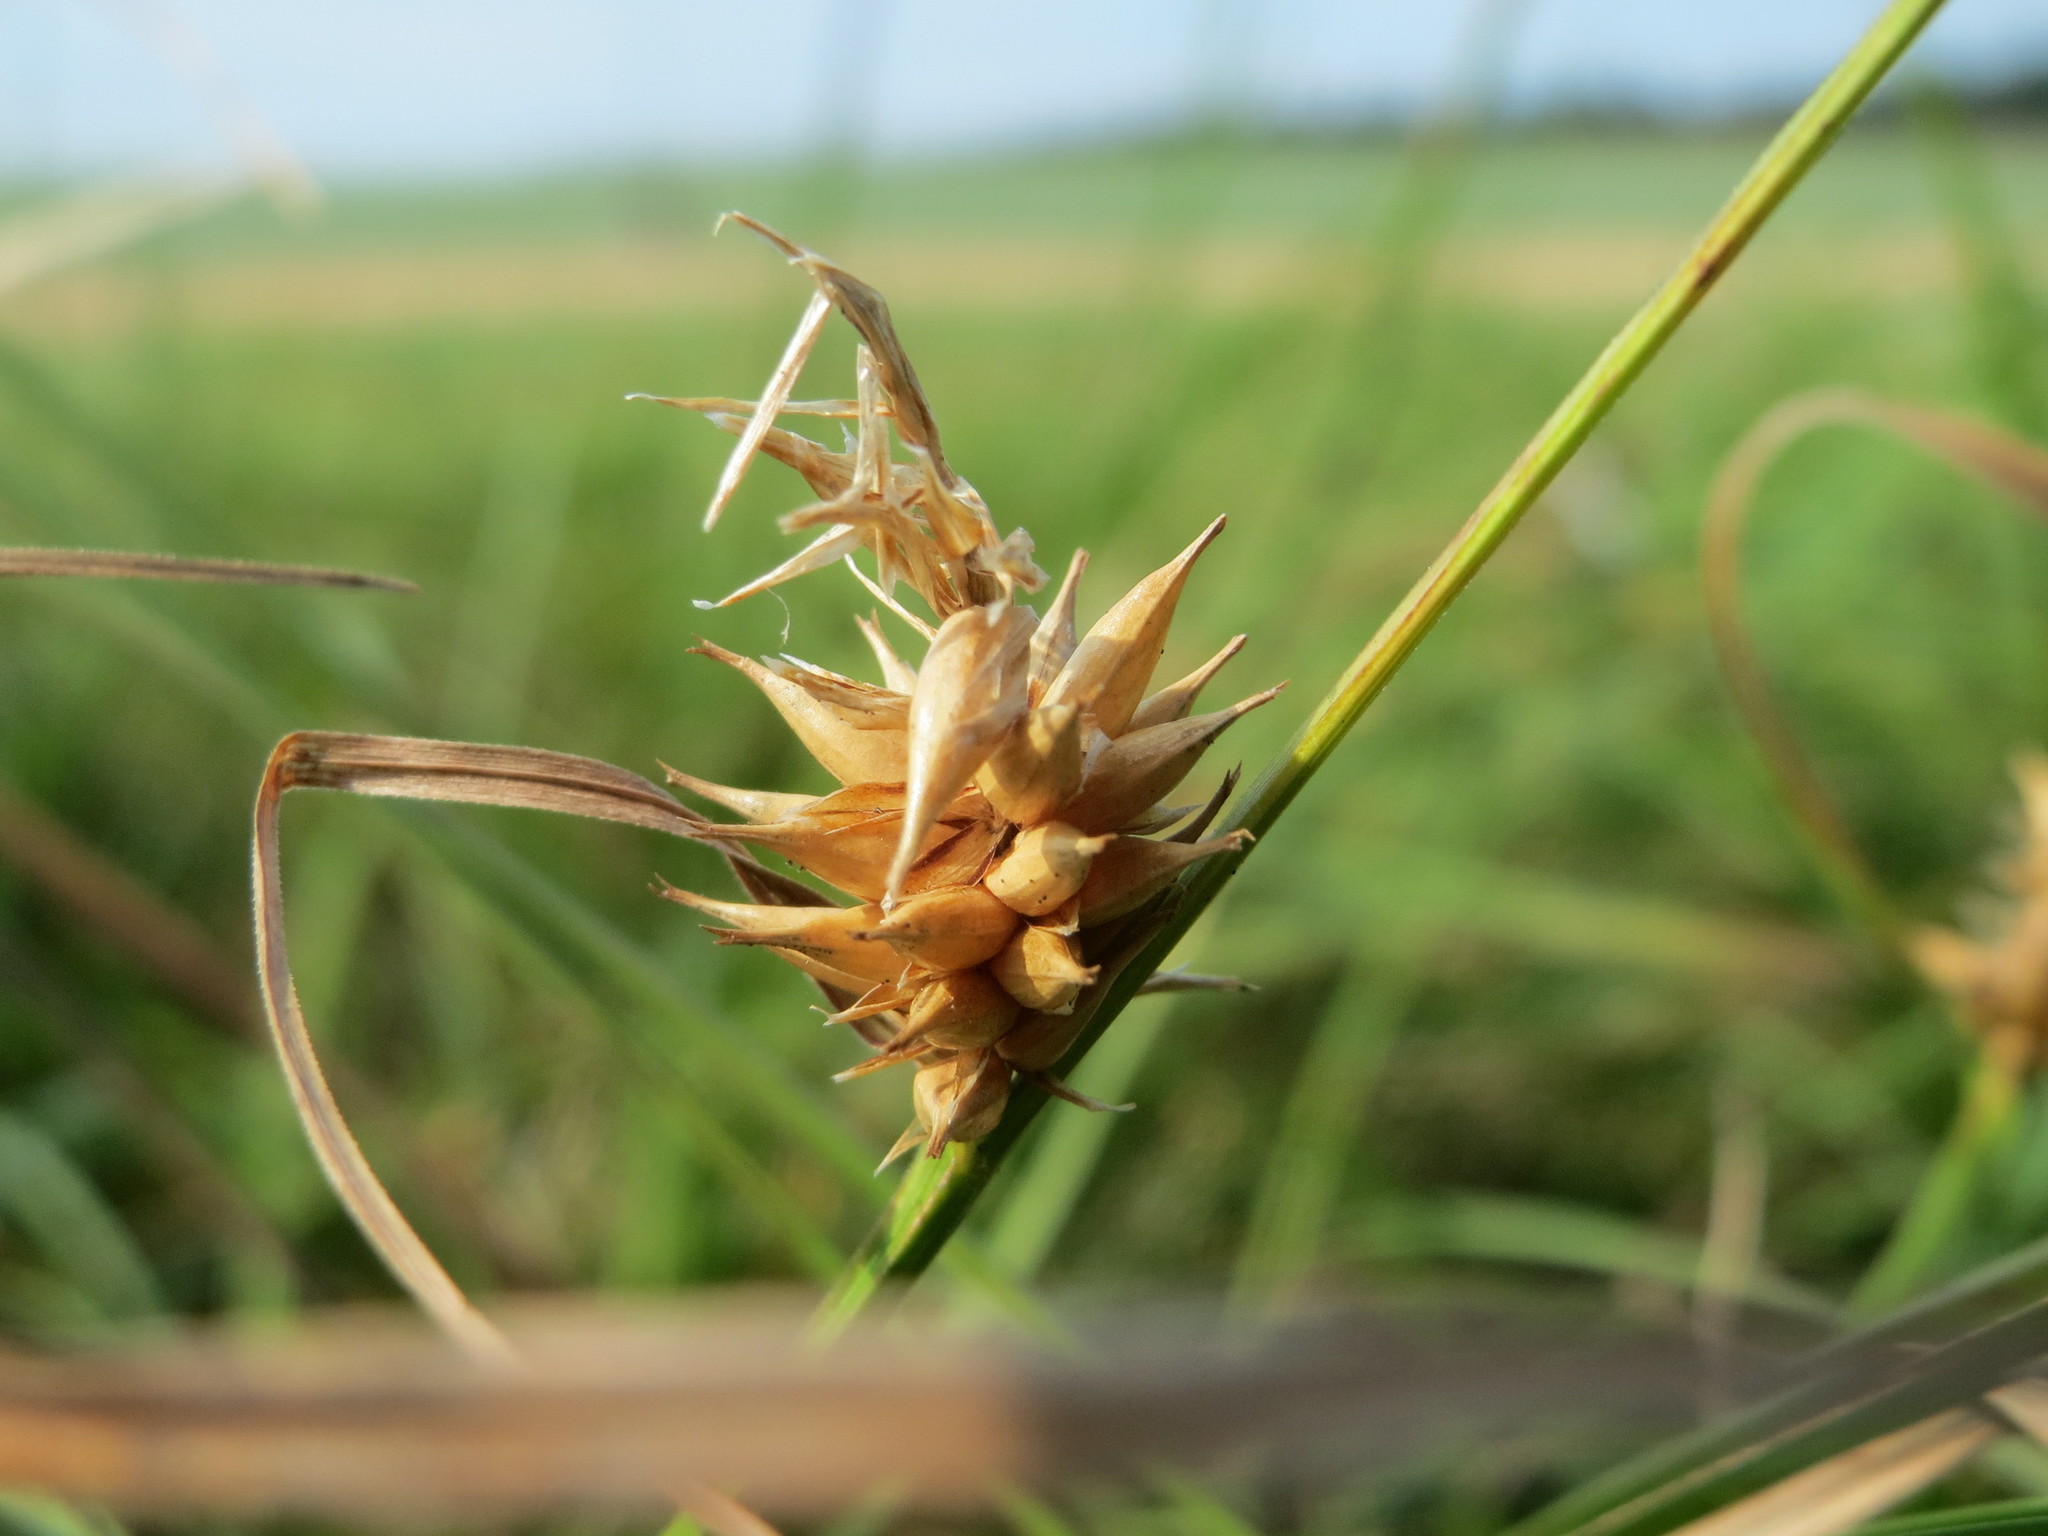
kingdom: Plantae
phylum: Tracheophyta
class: Liliopsida
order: Poales
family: Cyperaceae
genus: Carex
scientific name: Carex vesicaria
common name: Bladder-sedge
